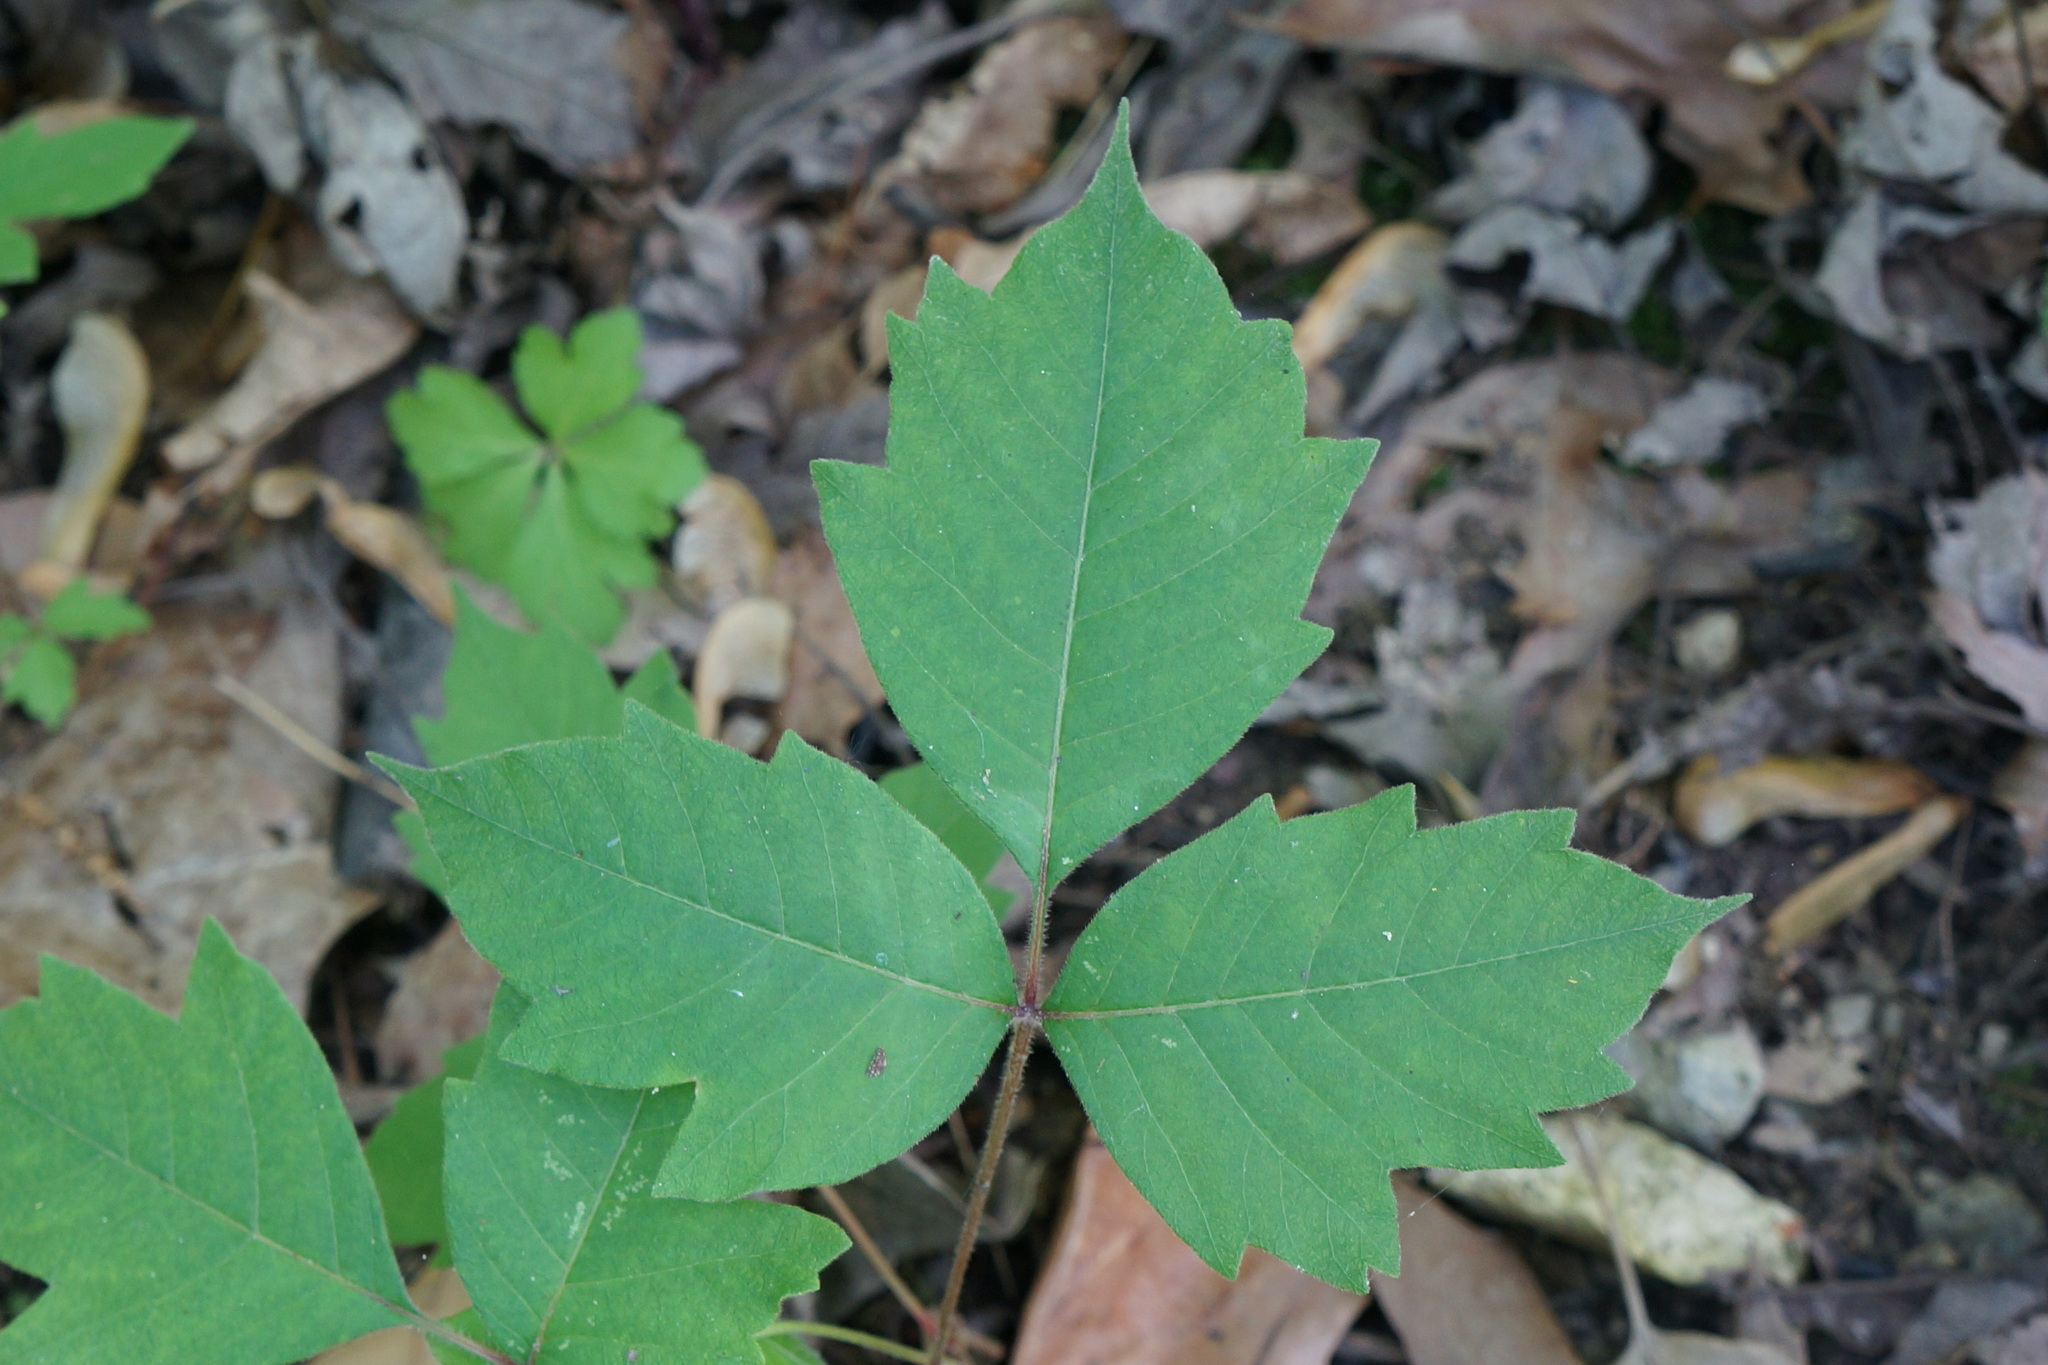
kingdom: Plantae
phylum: Tracheophyta
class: Magnoliopsida
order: Sapindales
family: Anacardiaceae
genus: Toxicodendron
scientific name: Toxicodendron radicans
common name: Poison ivy
